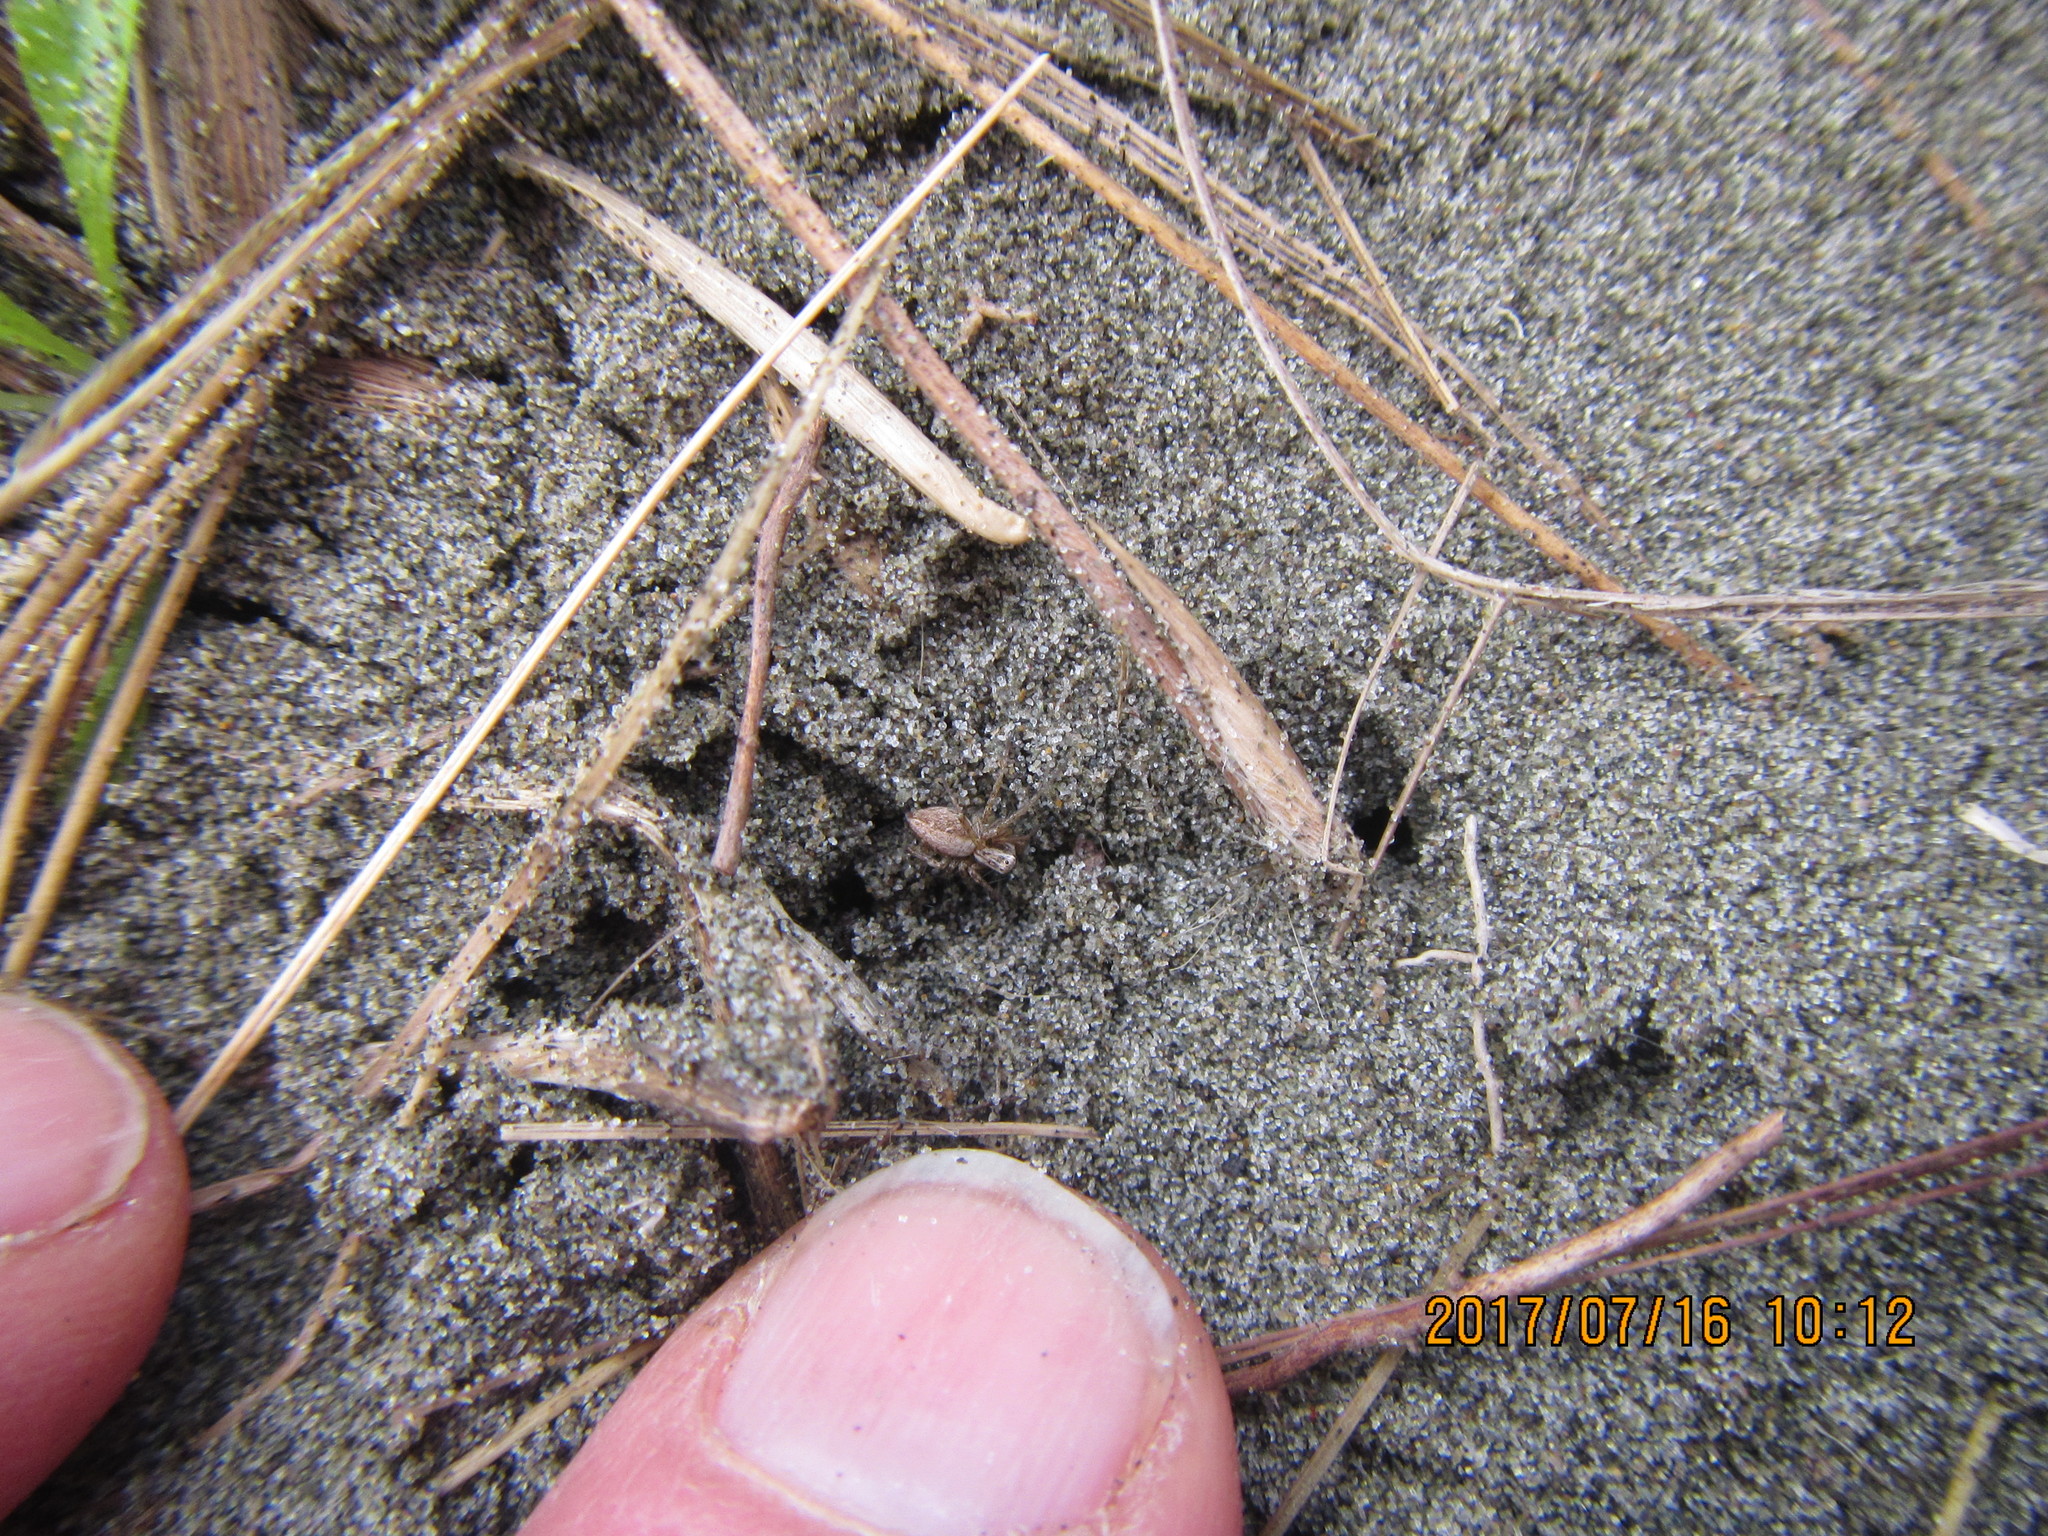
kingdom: Animalia
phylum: Arthropoda
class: Arachnida
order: Araneae
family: Oxyopidae
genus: Oxyopes
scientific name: Oxyopes gracilipes
